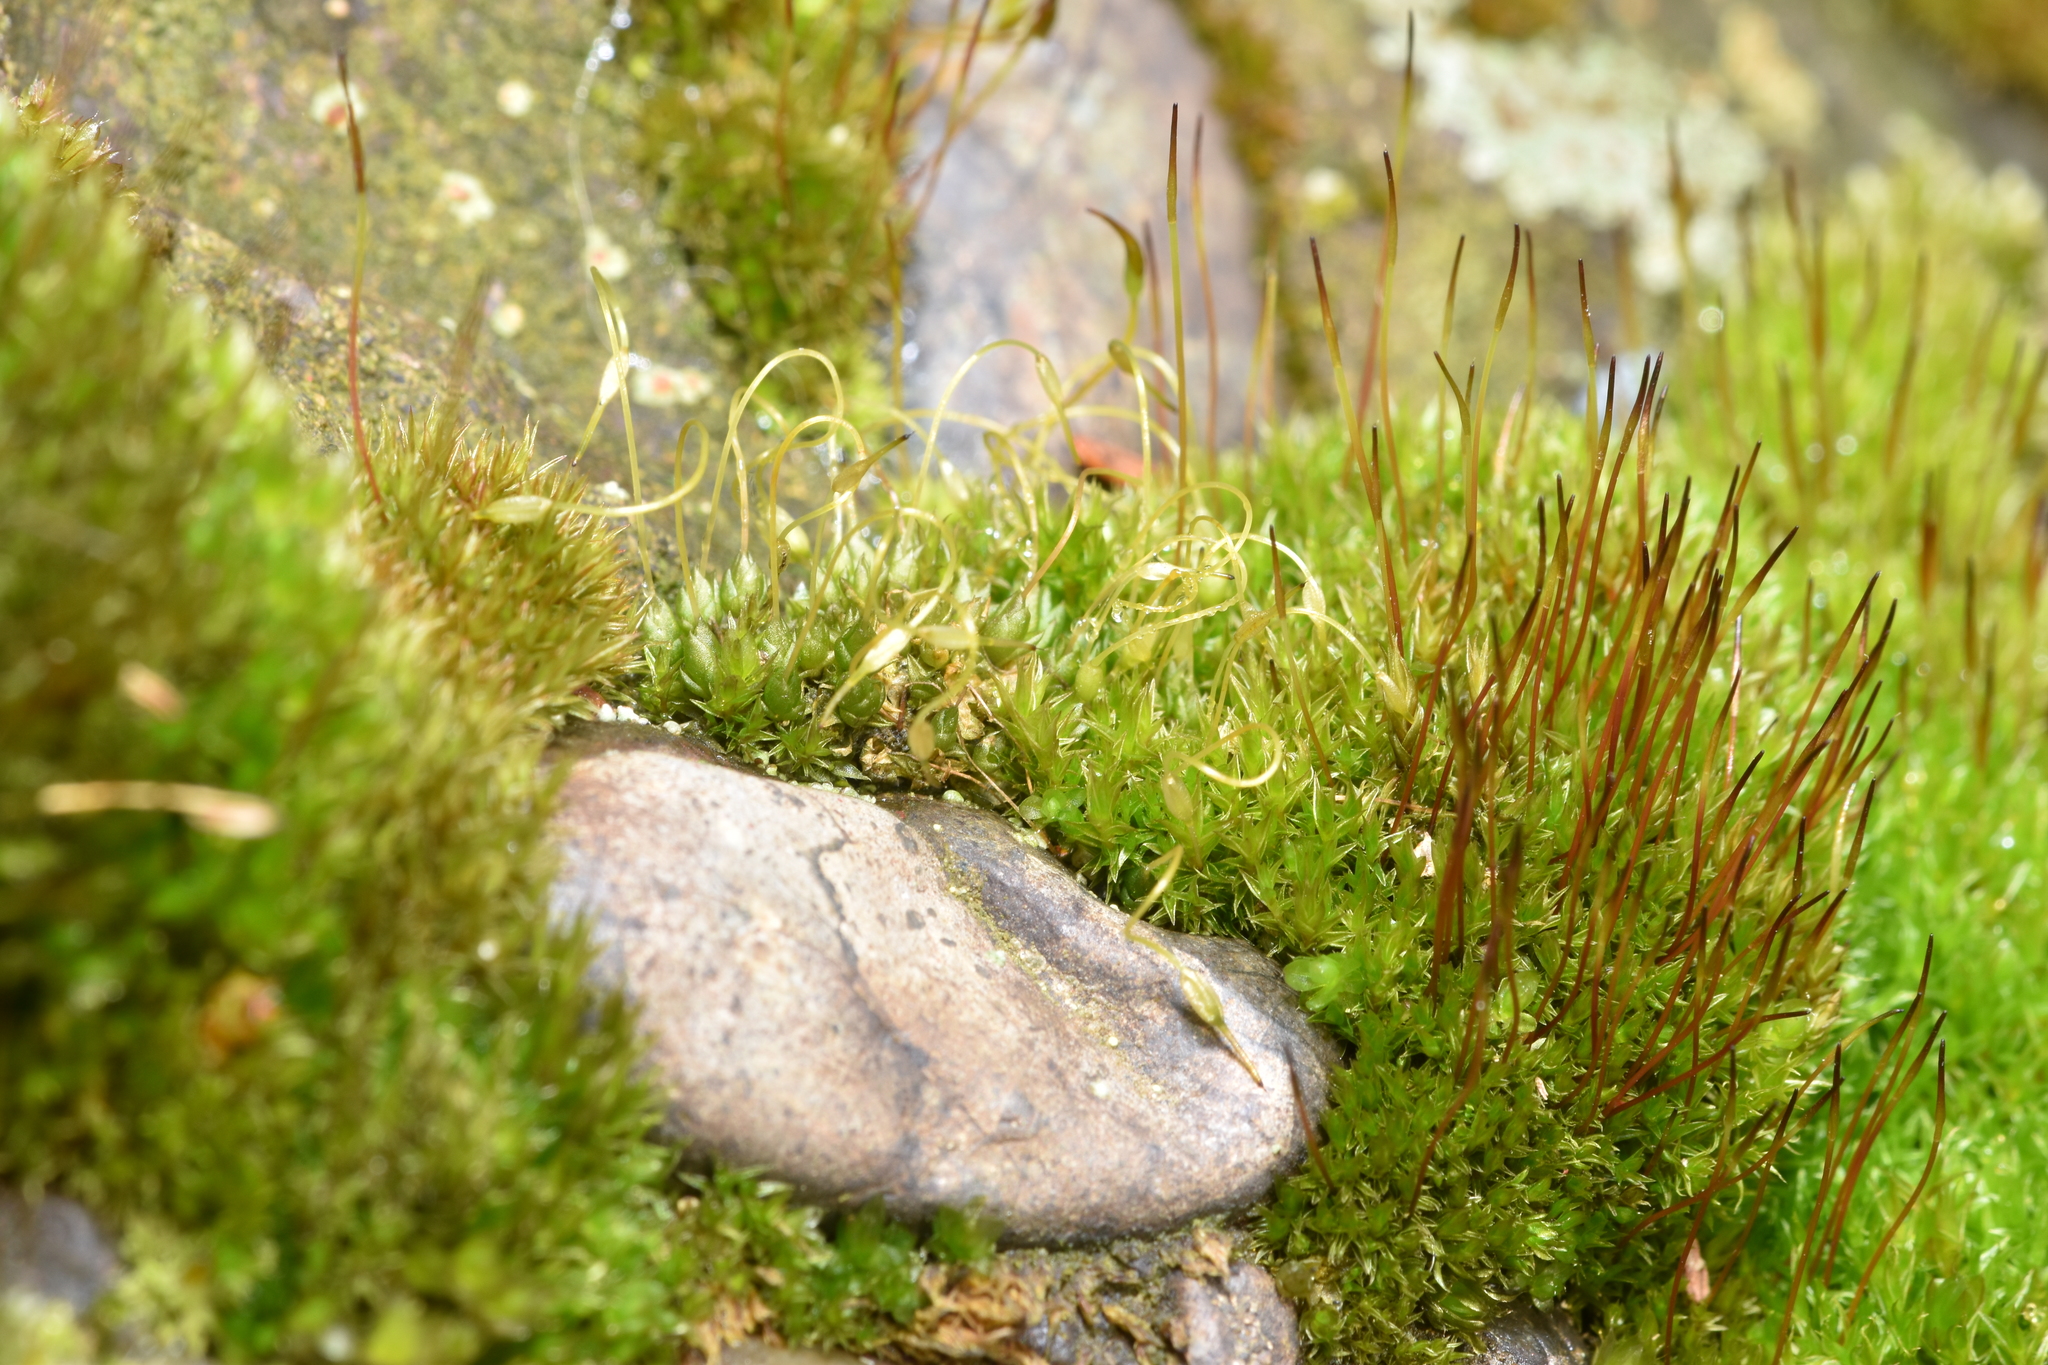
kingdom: Plantae
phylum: Bryophyta
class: Bryopsida
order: Funariales
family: Funariaceae
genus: Funaria
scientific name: Funaria hygrometrica
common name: Common cord moss
